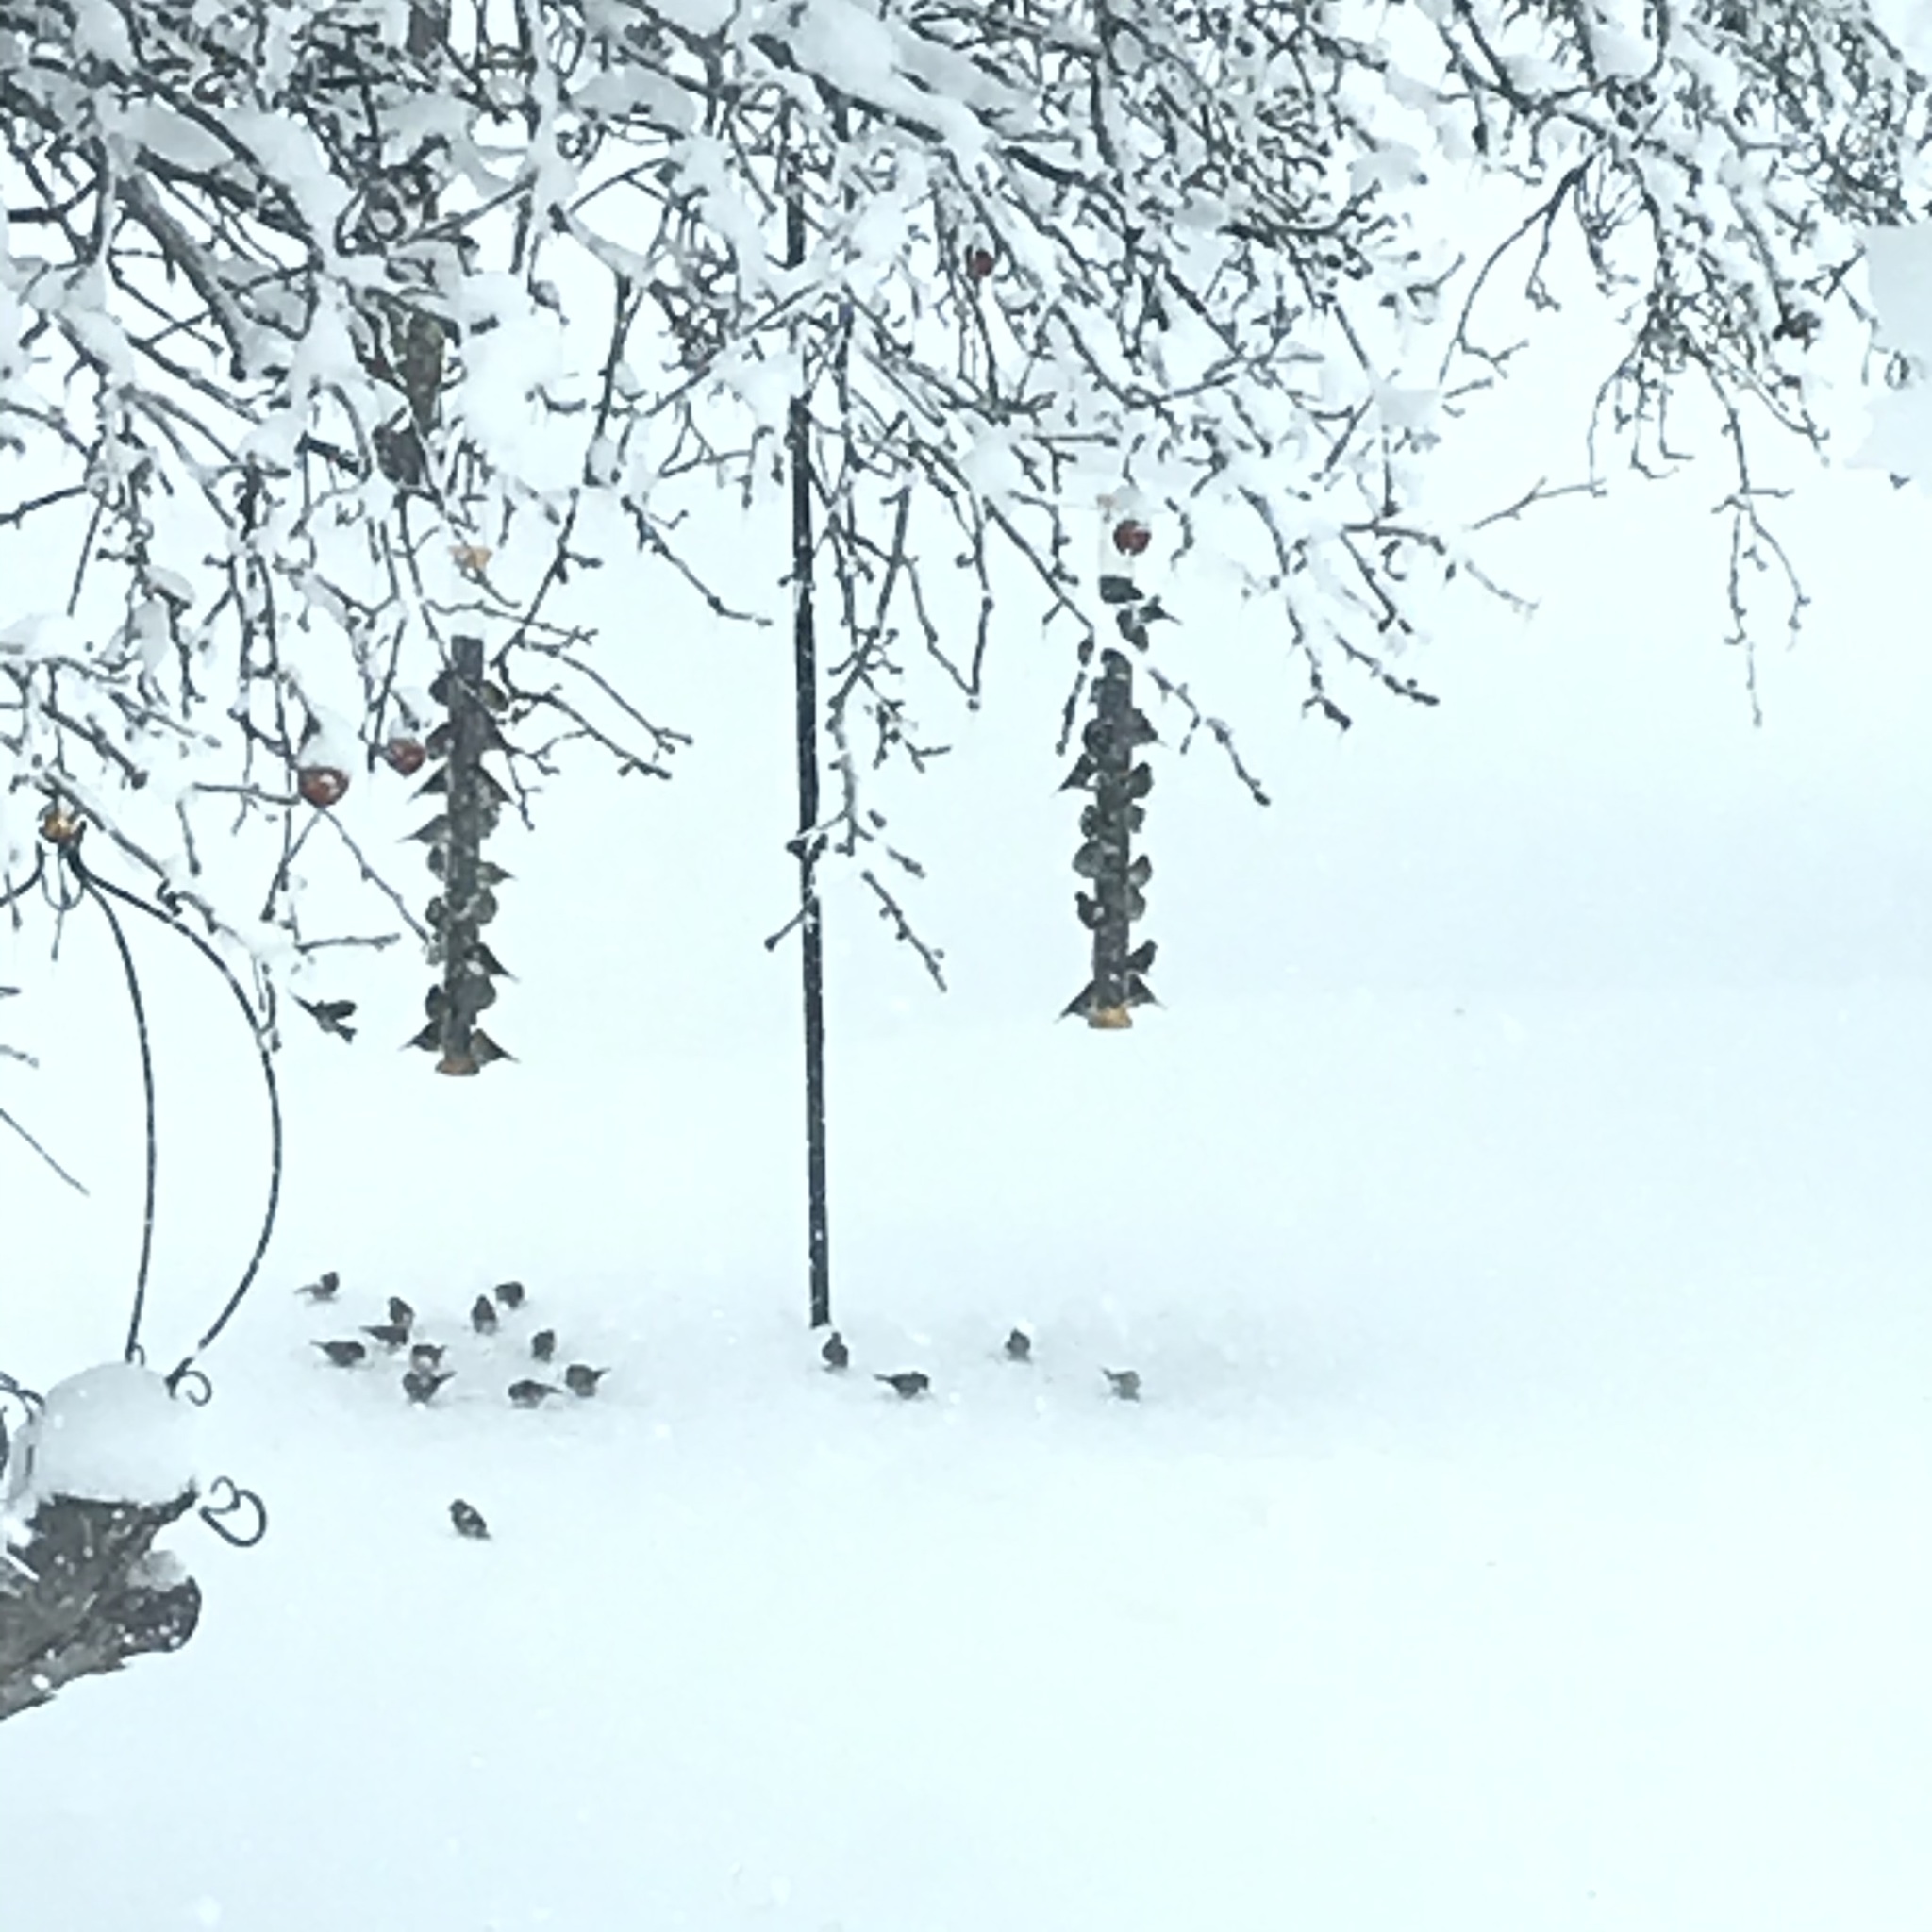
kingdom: Animalia
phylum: Chordata
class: Aves
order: Passeriformes
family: Fringillidae
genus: Spinus
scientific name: Spinus tristis
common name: American goldfinch
